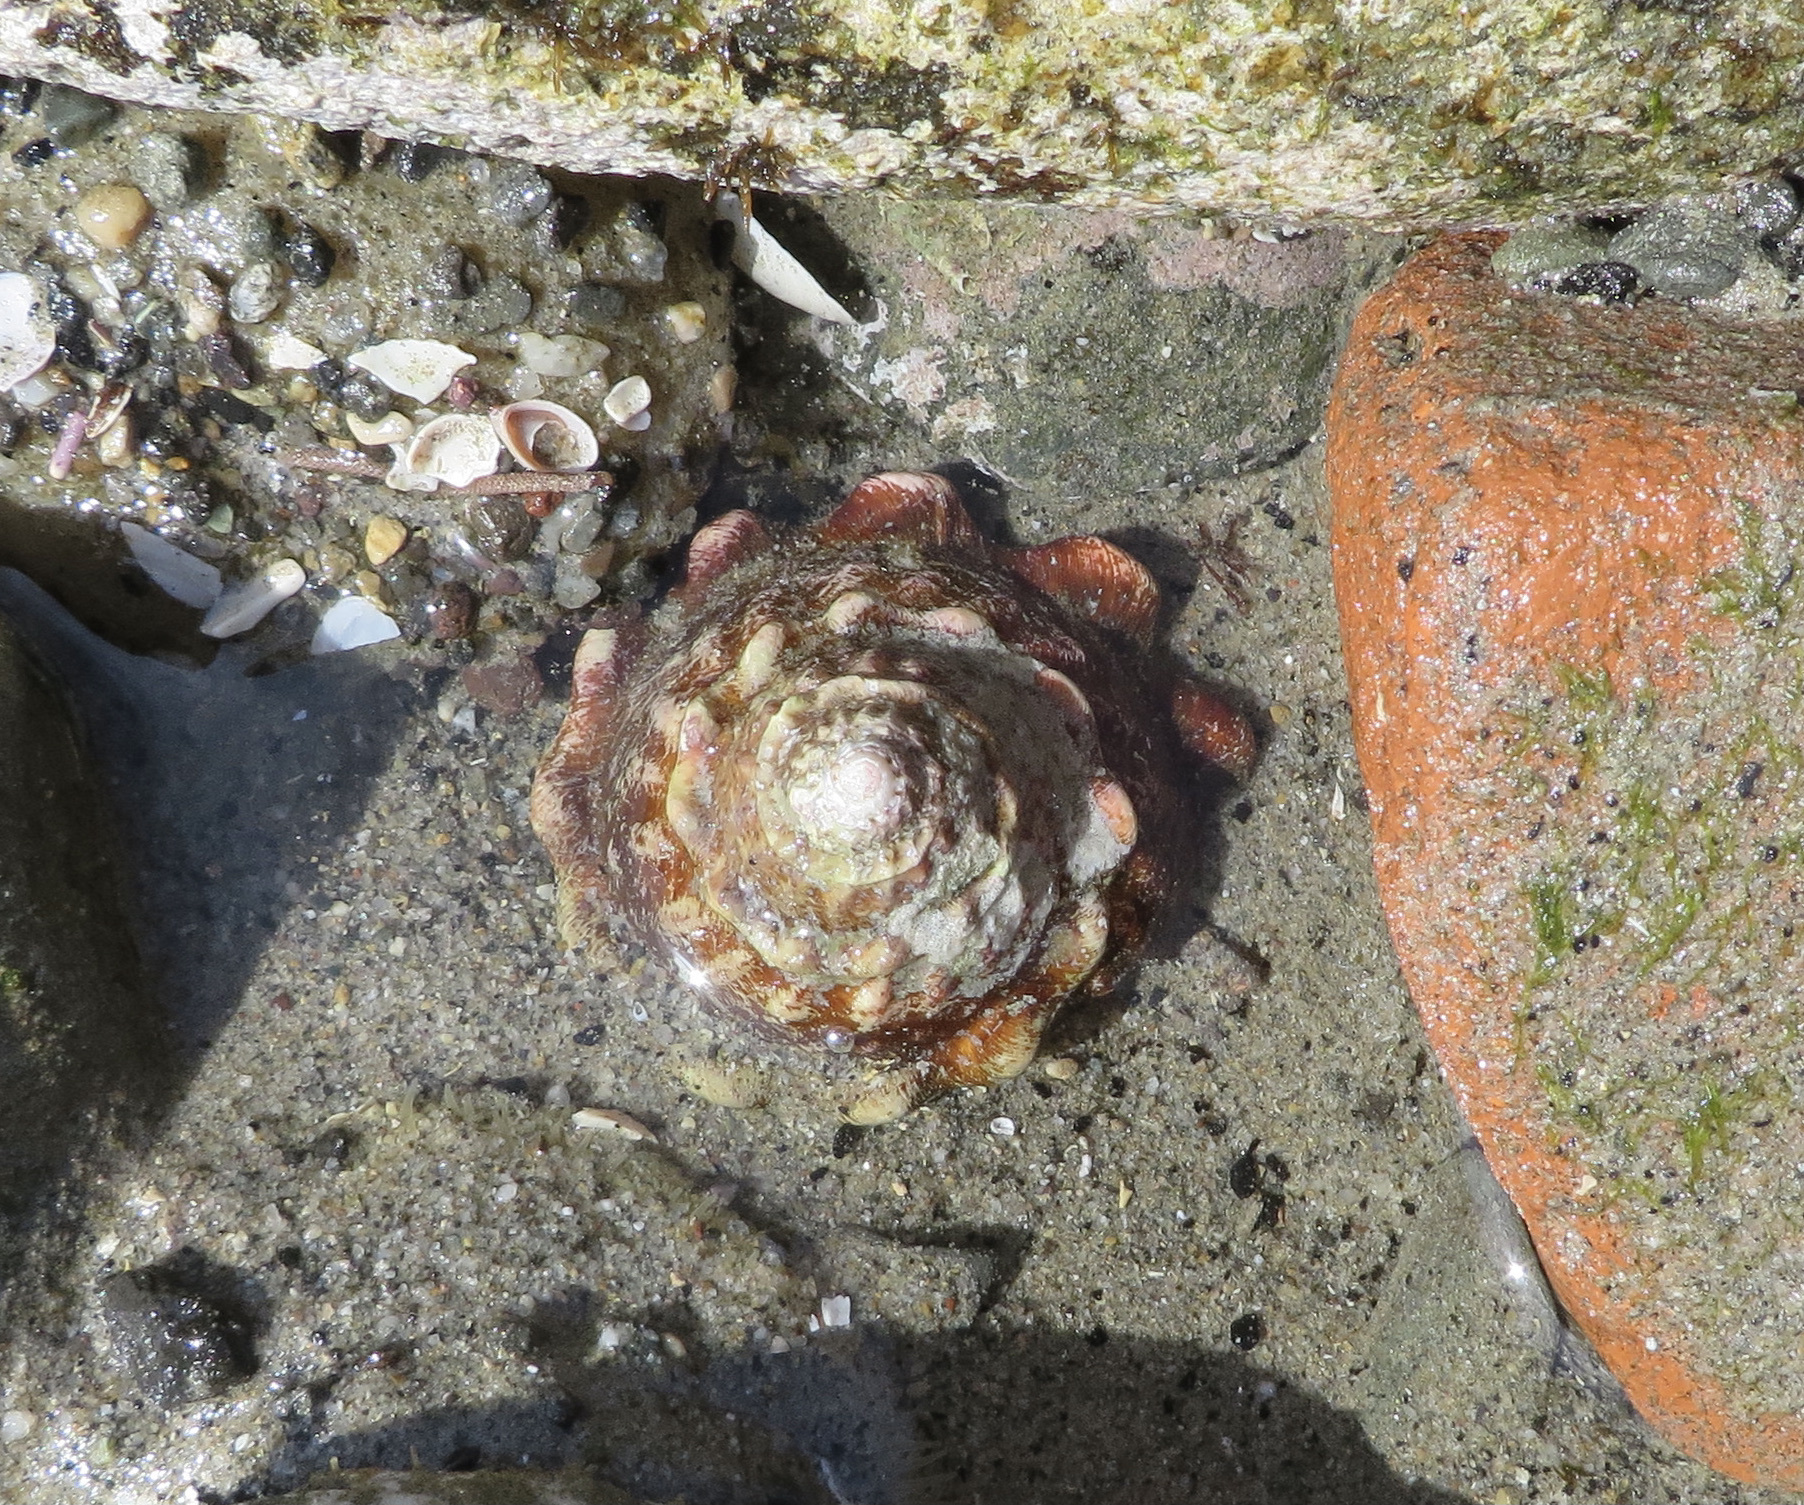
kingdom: Animalia
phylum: Mollusca
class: Gastropoda
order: Trochida
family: Turbinidae
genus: Megastraea
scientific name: Megastraea undosa
